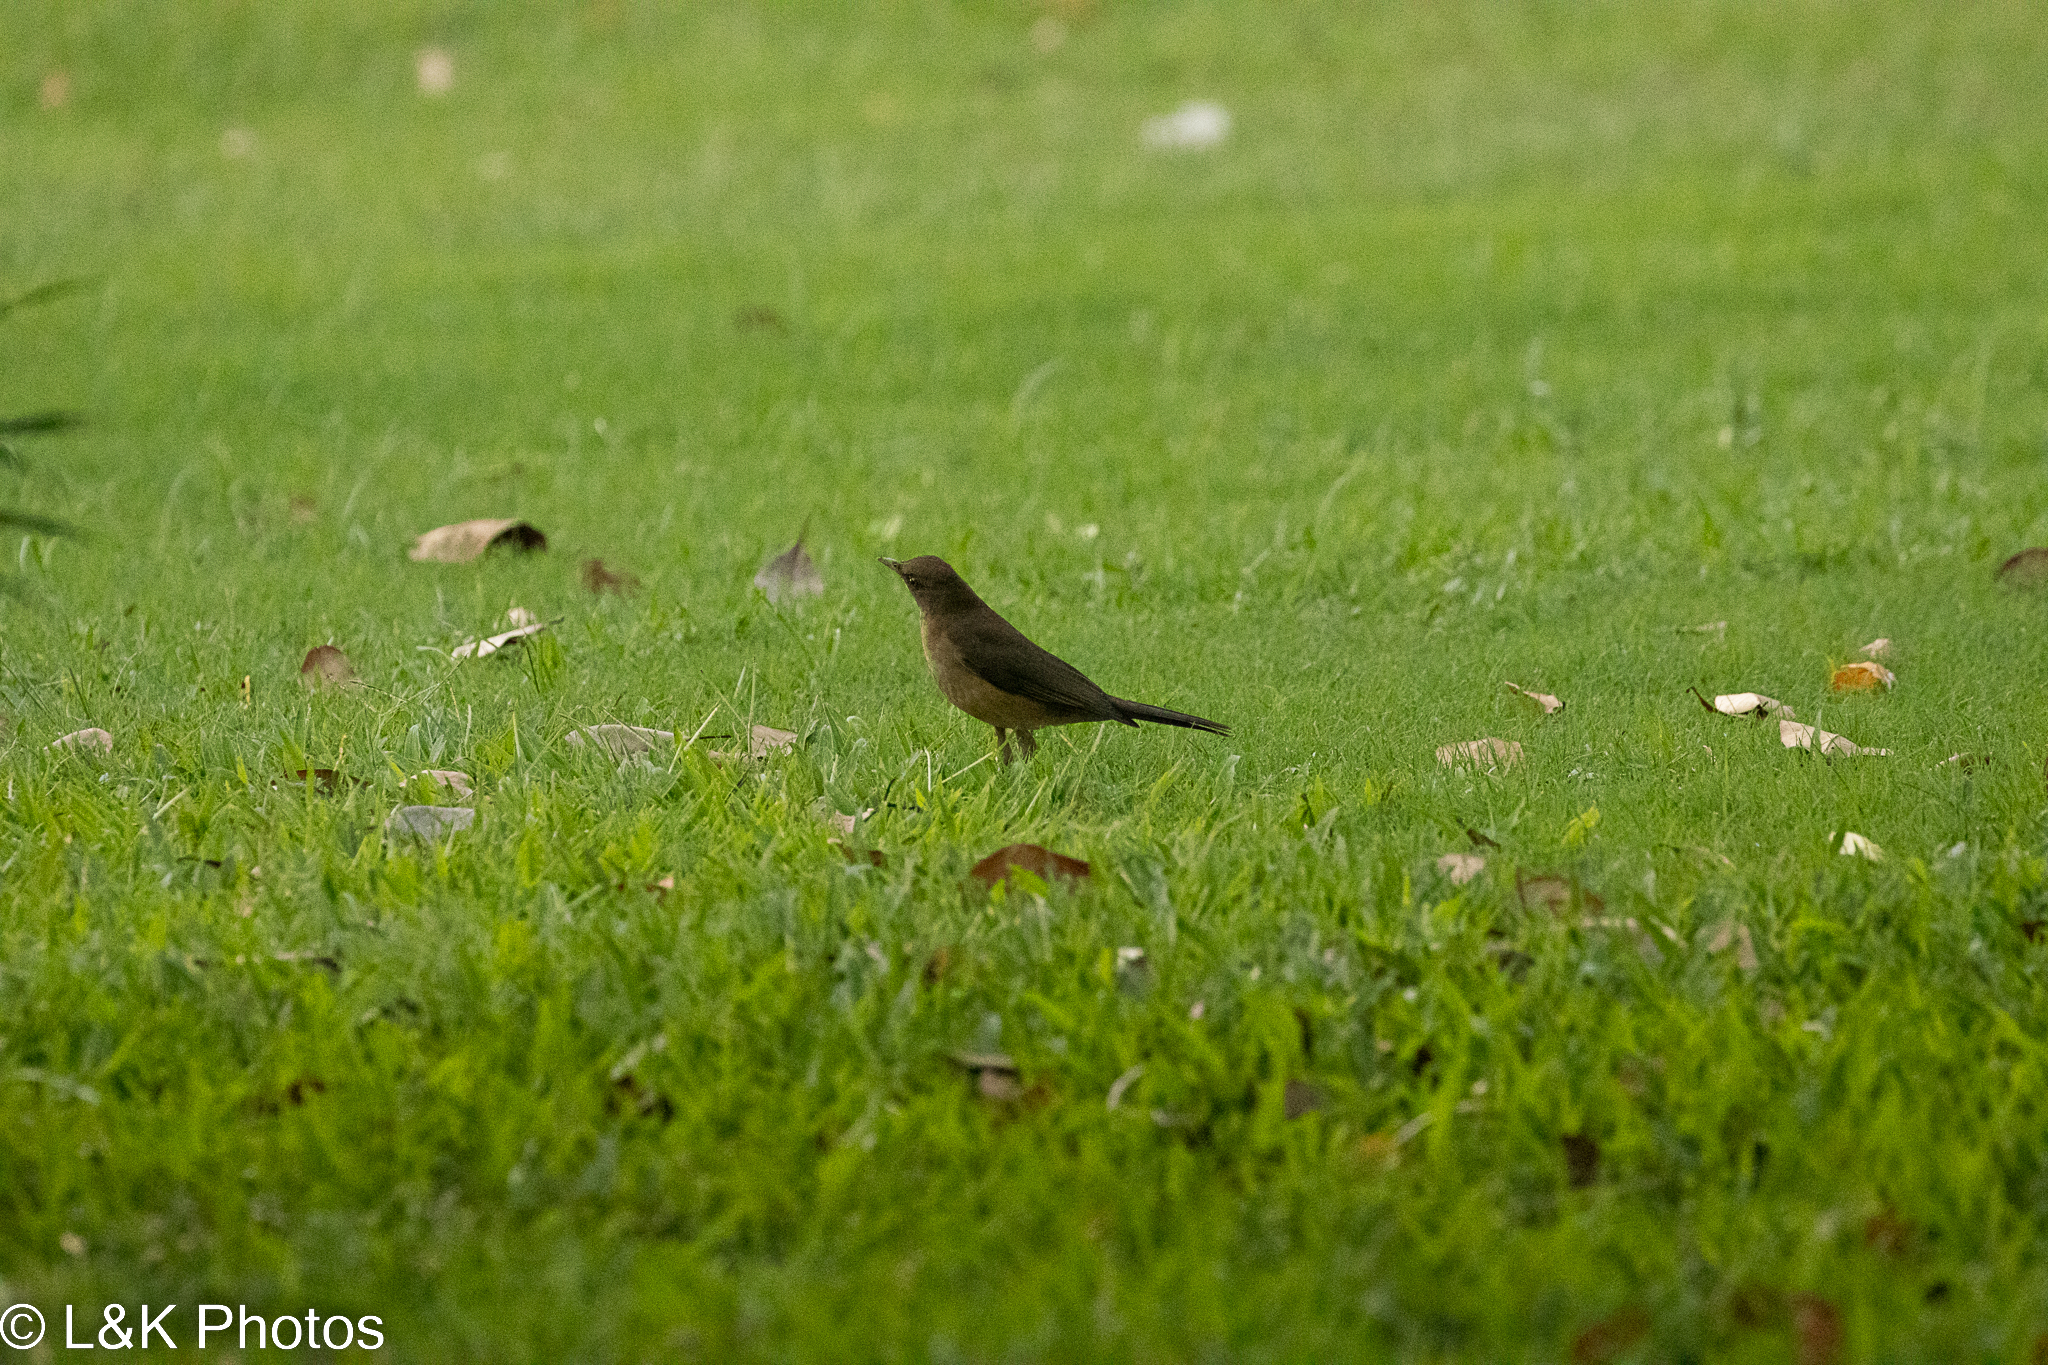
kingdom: Animalia
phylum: Chordata
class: Aves
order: Passeriformes
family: Turdidae
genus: Turdus
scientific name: Turdus grayi
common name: Clay-colored thrush
